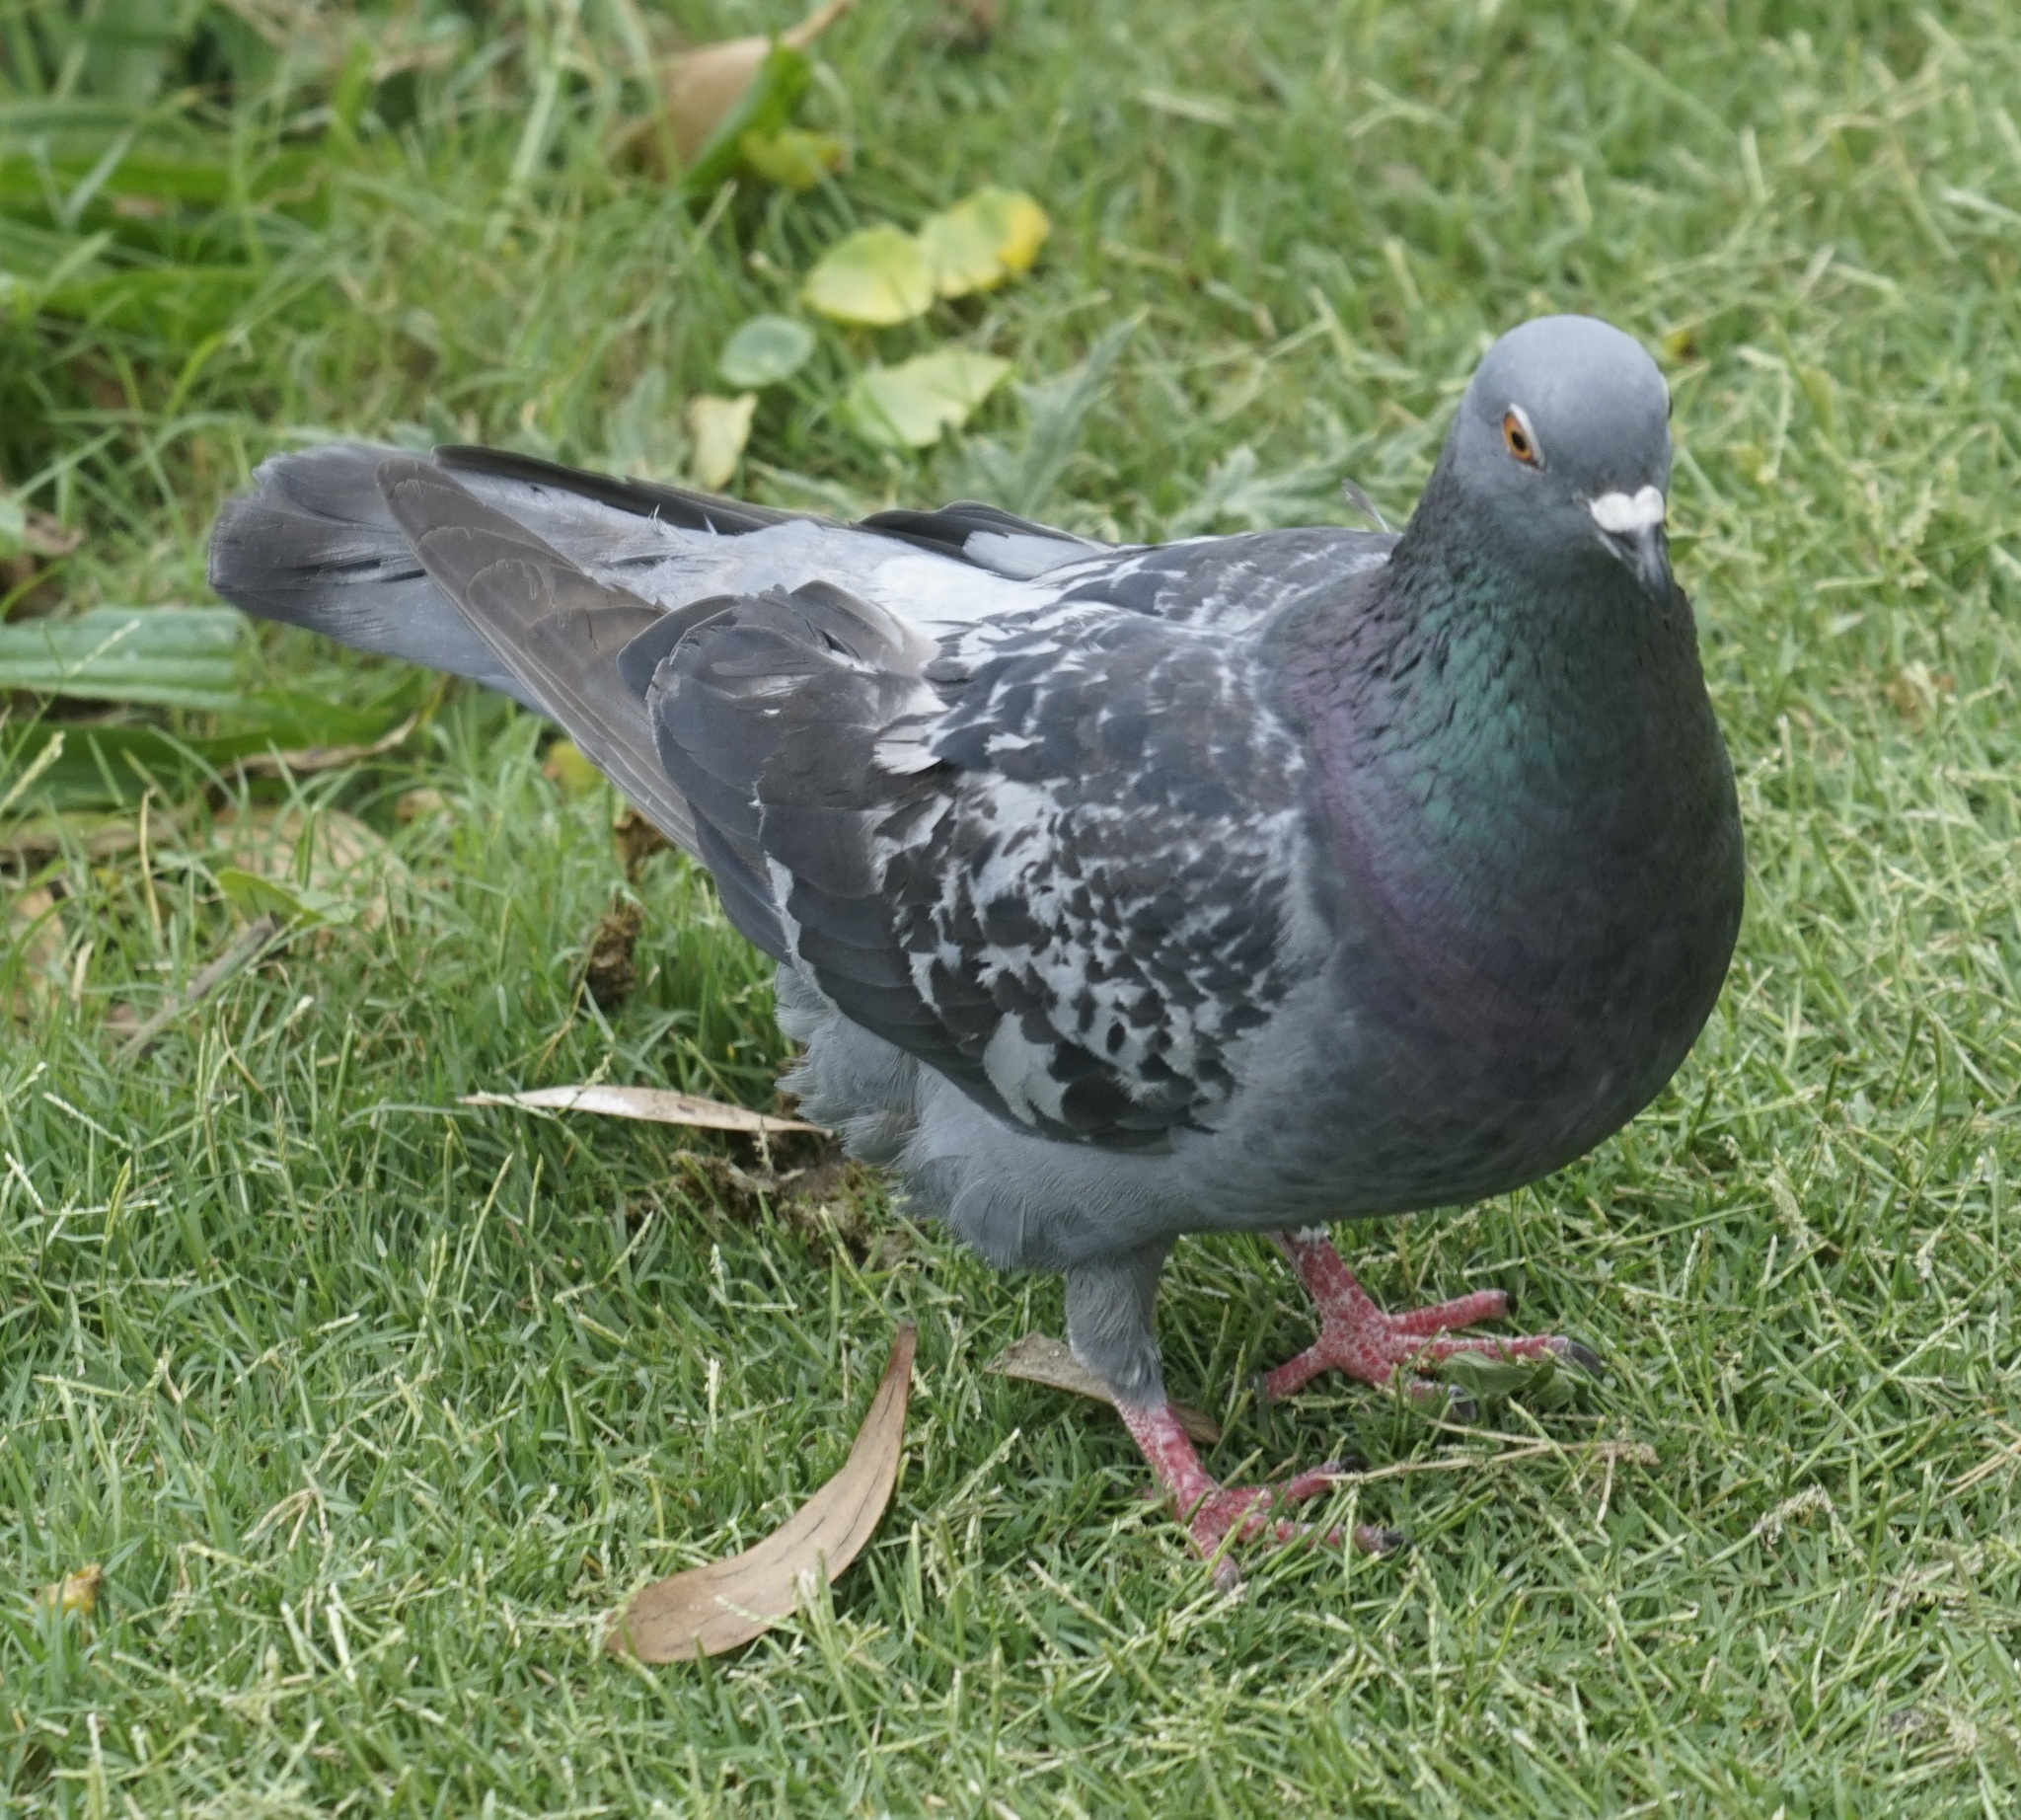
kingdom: Animalia
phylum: Chordata
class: Aves
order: Columbiformes
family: Columbidae
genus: Columba
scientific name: Columba livia
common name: Rock pigeon
